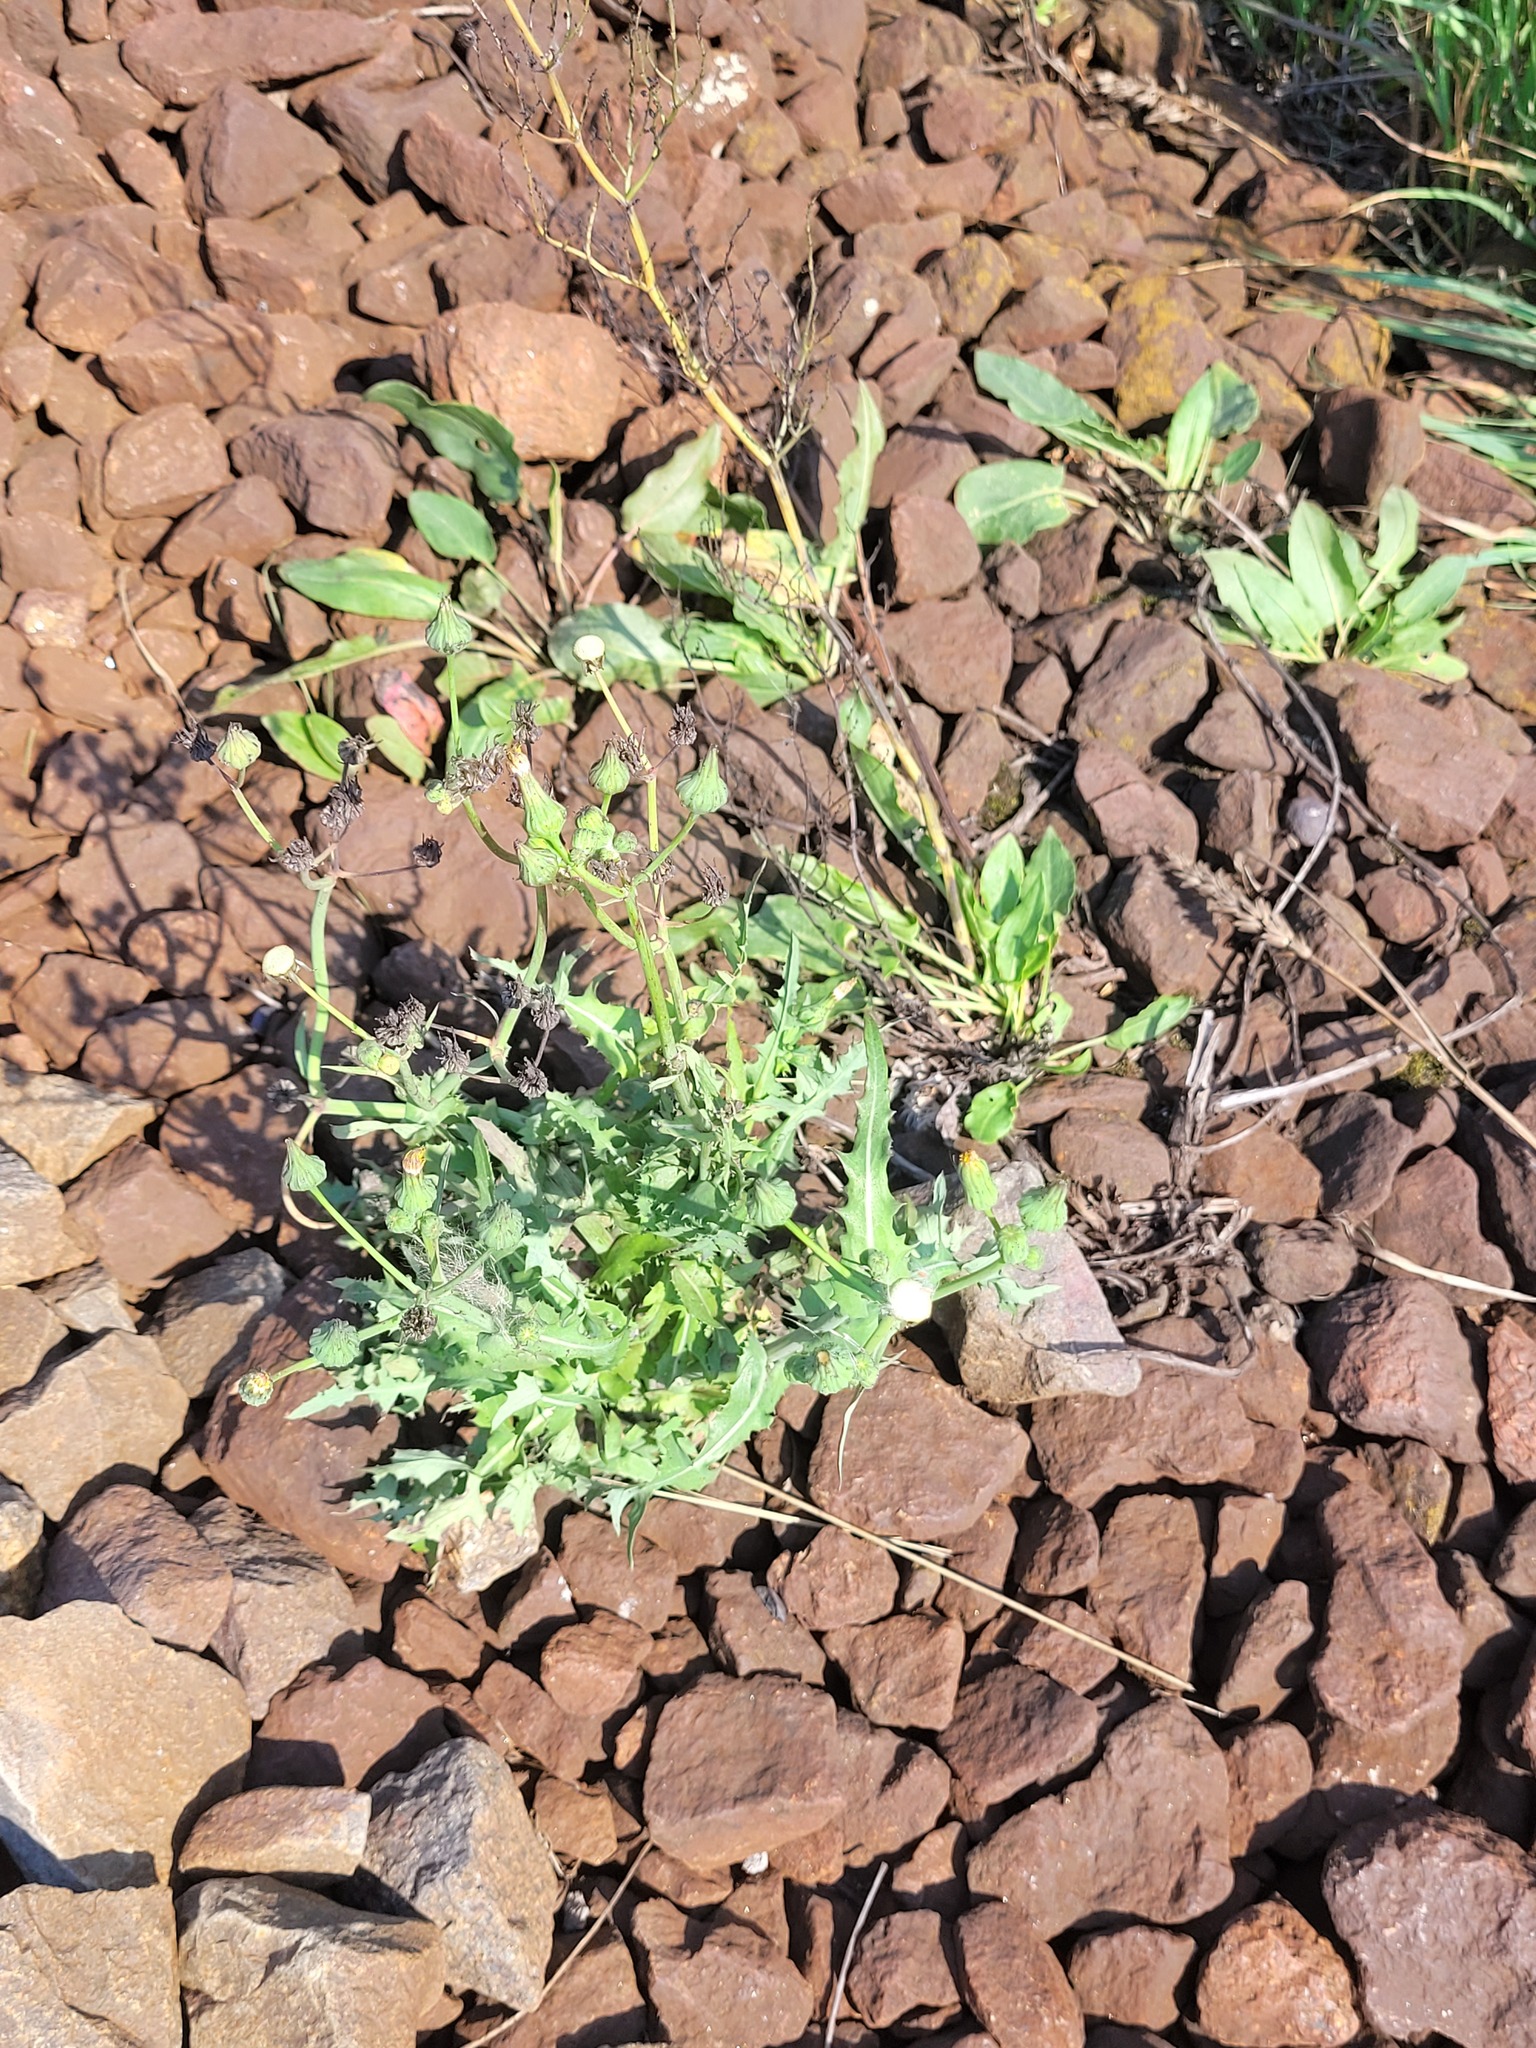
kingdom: Plantae
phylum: Tracheophyta
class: Magnoliopsida
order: Asterales
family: Asteraceae
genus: Sonchus
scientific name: Sonchus oleraceus
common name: Common sowthistle
